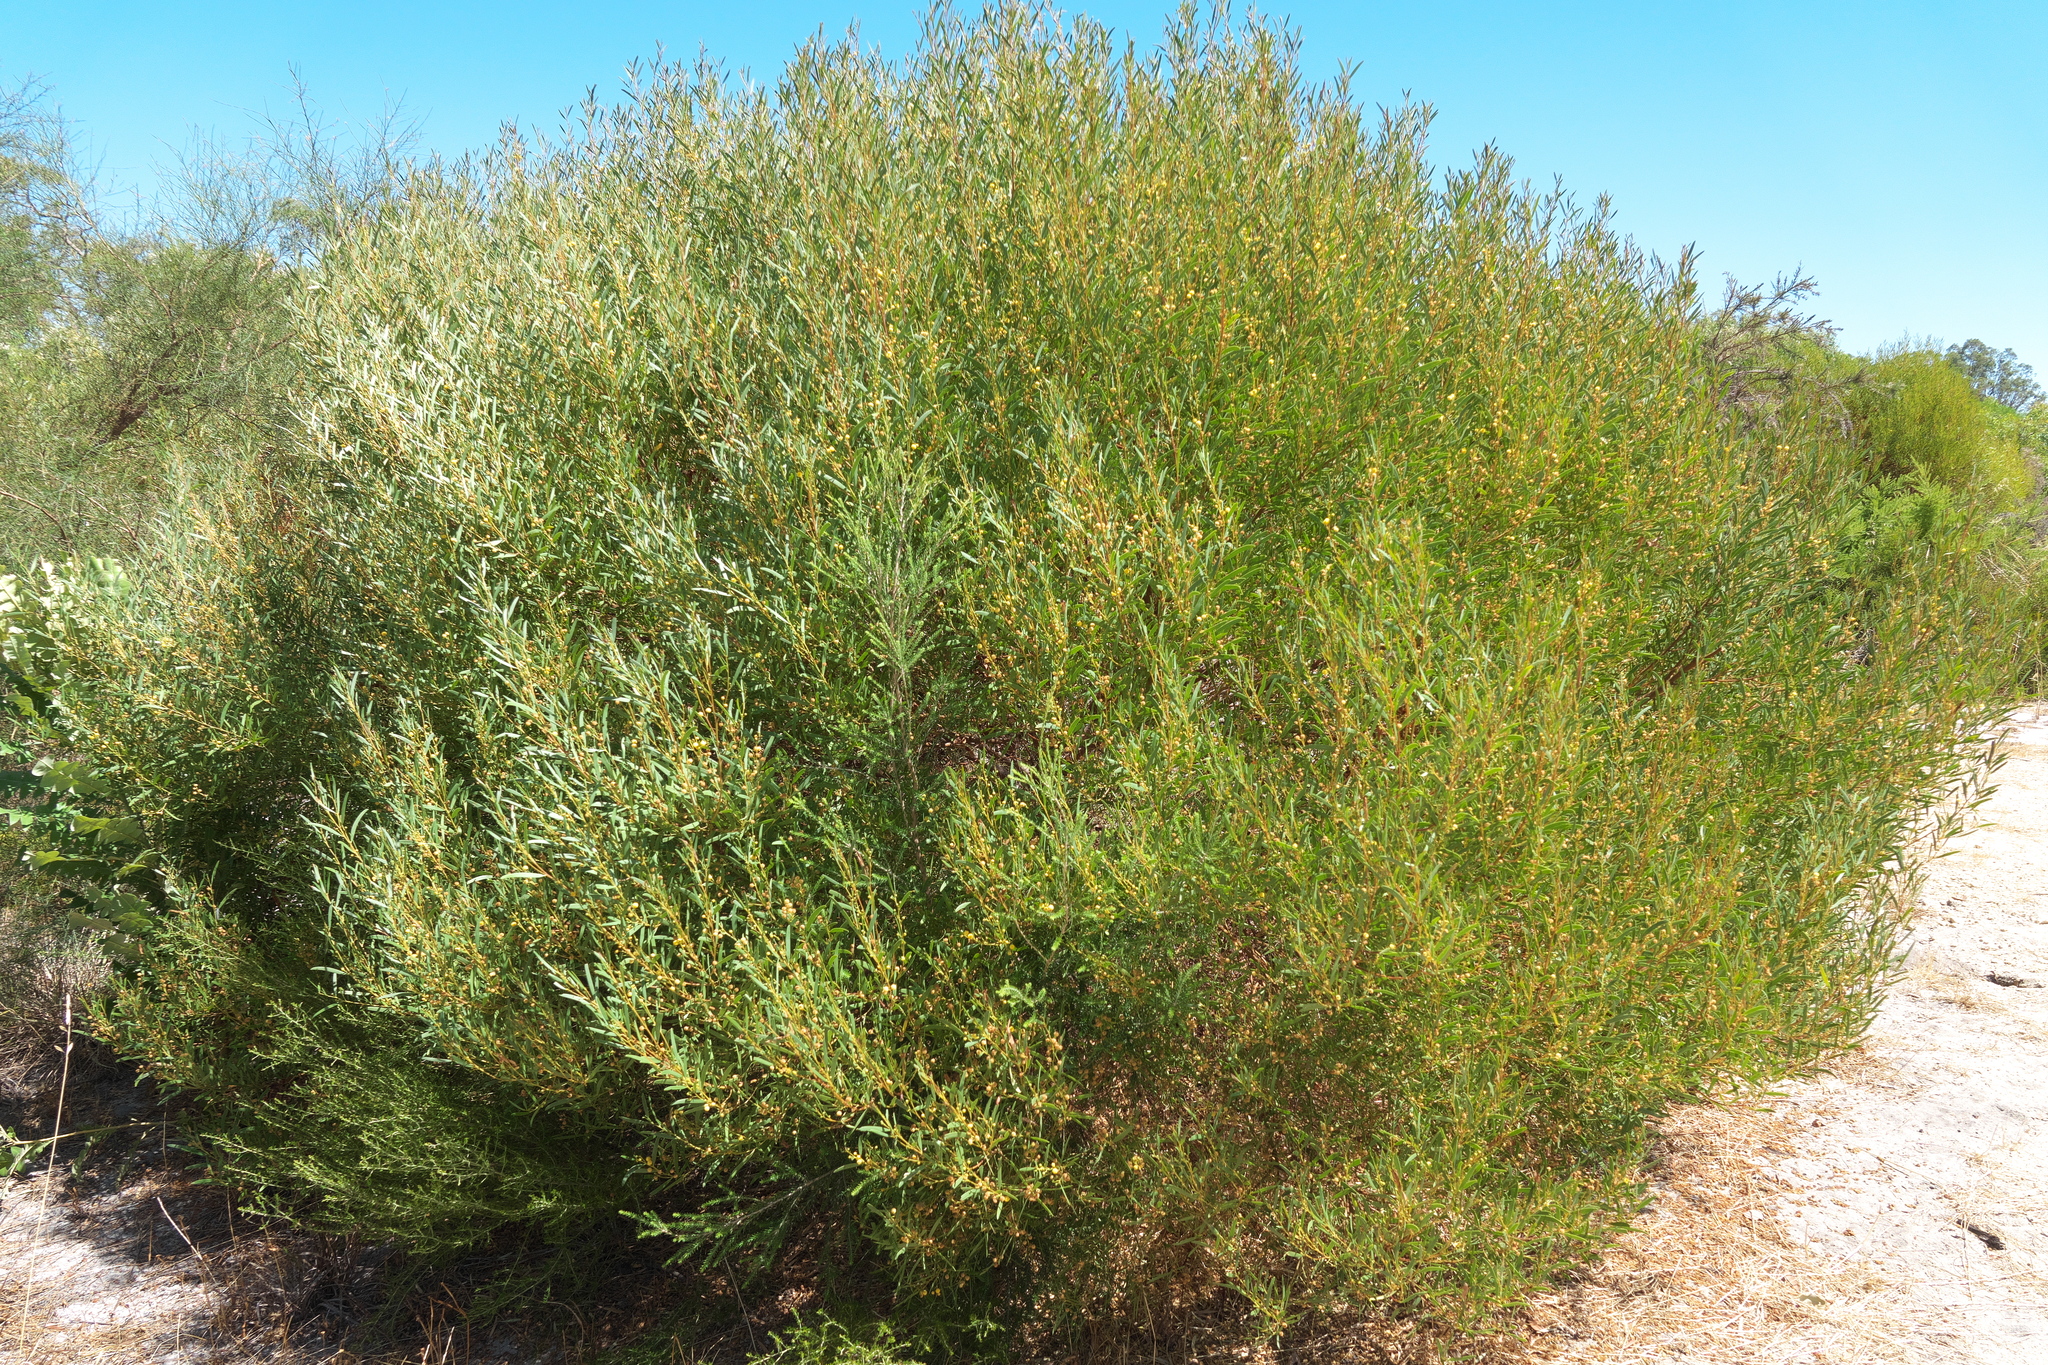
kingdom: Plantae
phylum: Tracheophyta
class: Magnoliopsida
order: Fabales
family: Fabaceae
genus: Acacia
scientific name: Acacia cyclops
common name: Coastal wattle
